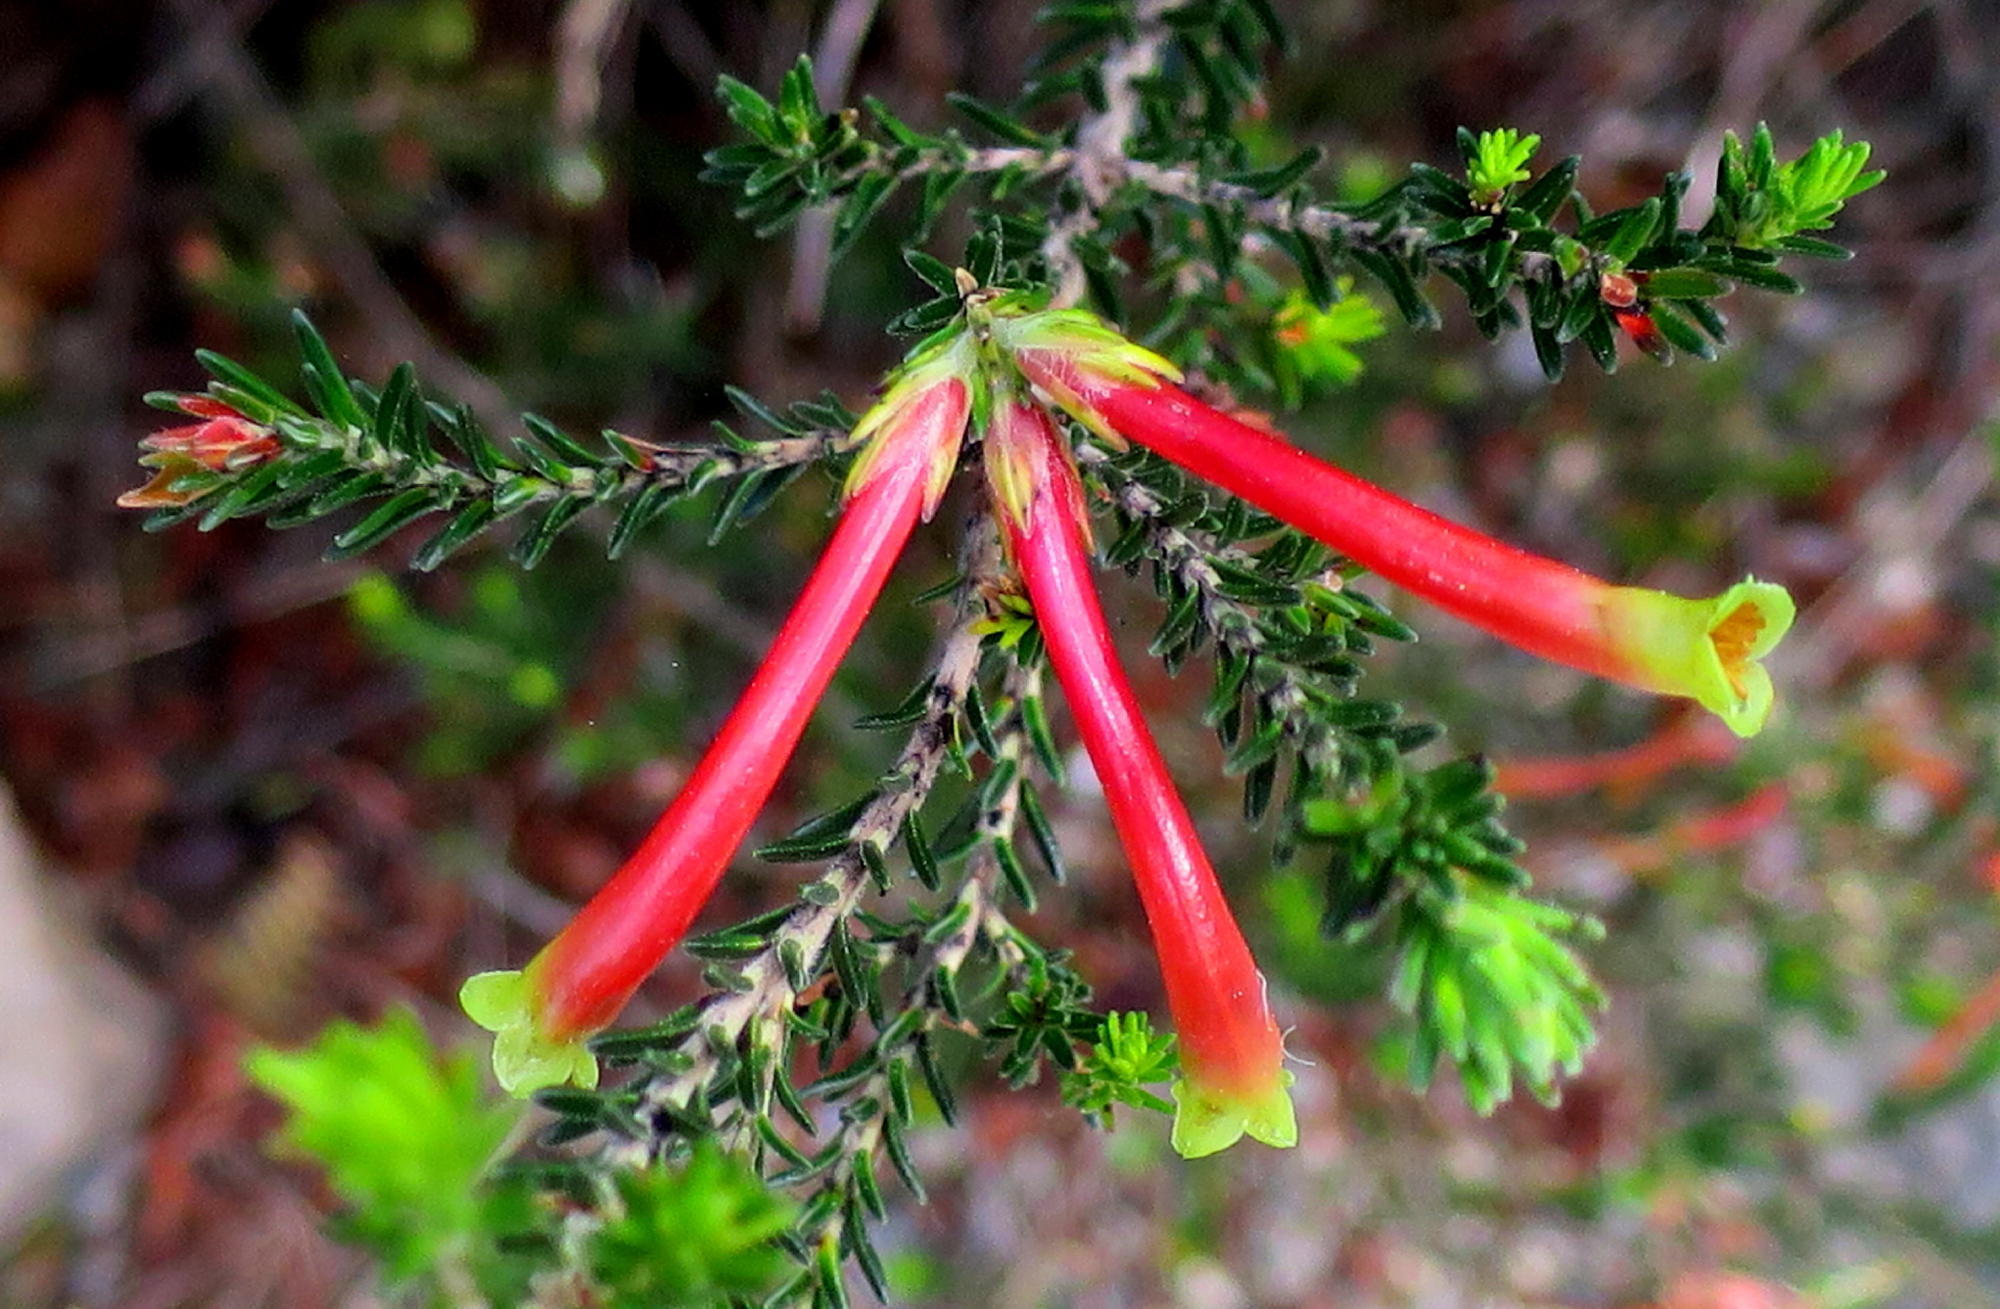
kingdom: Plantae
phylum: Tracheophyta
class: Magnoliopsida
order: Ericales
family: Ericaceae
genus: Erica
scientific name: Erica unicolor
